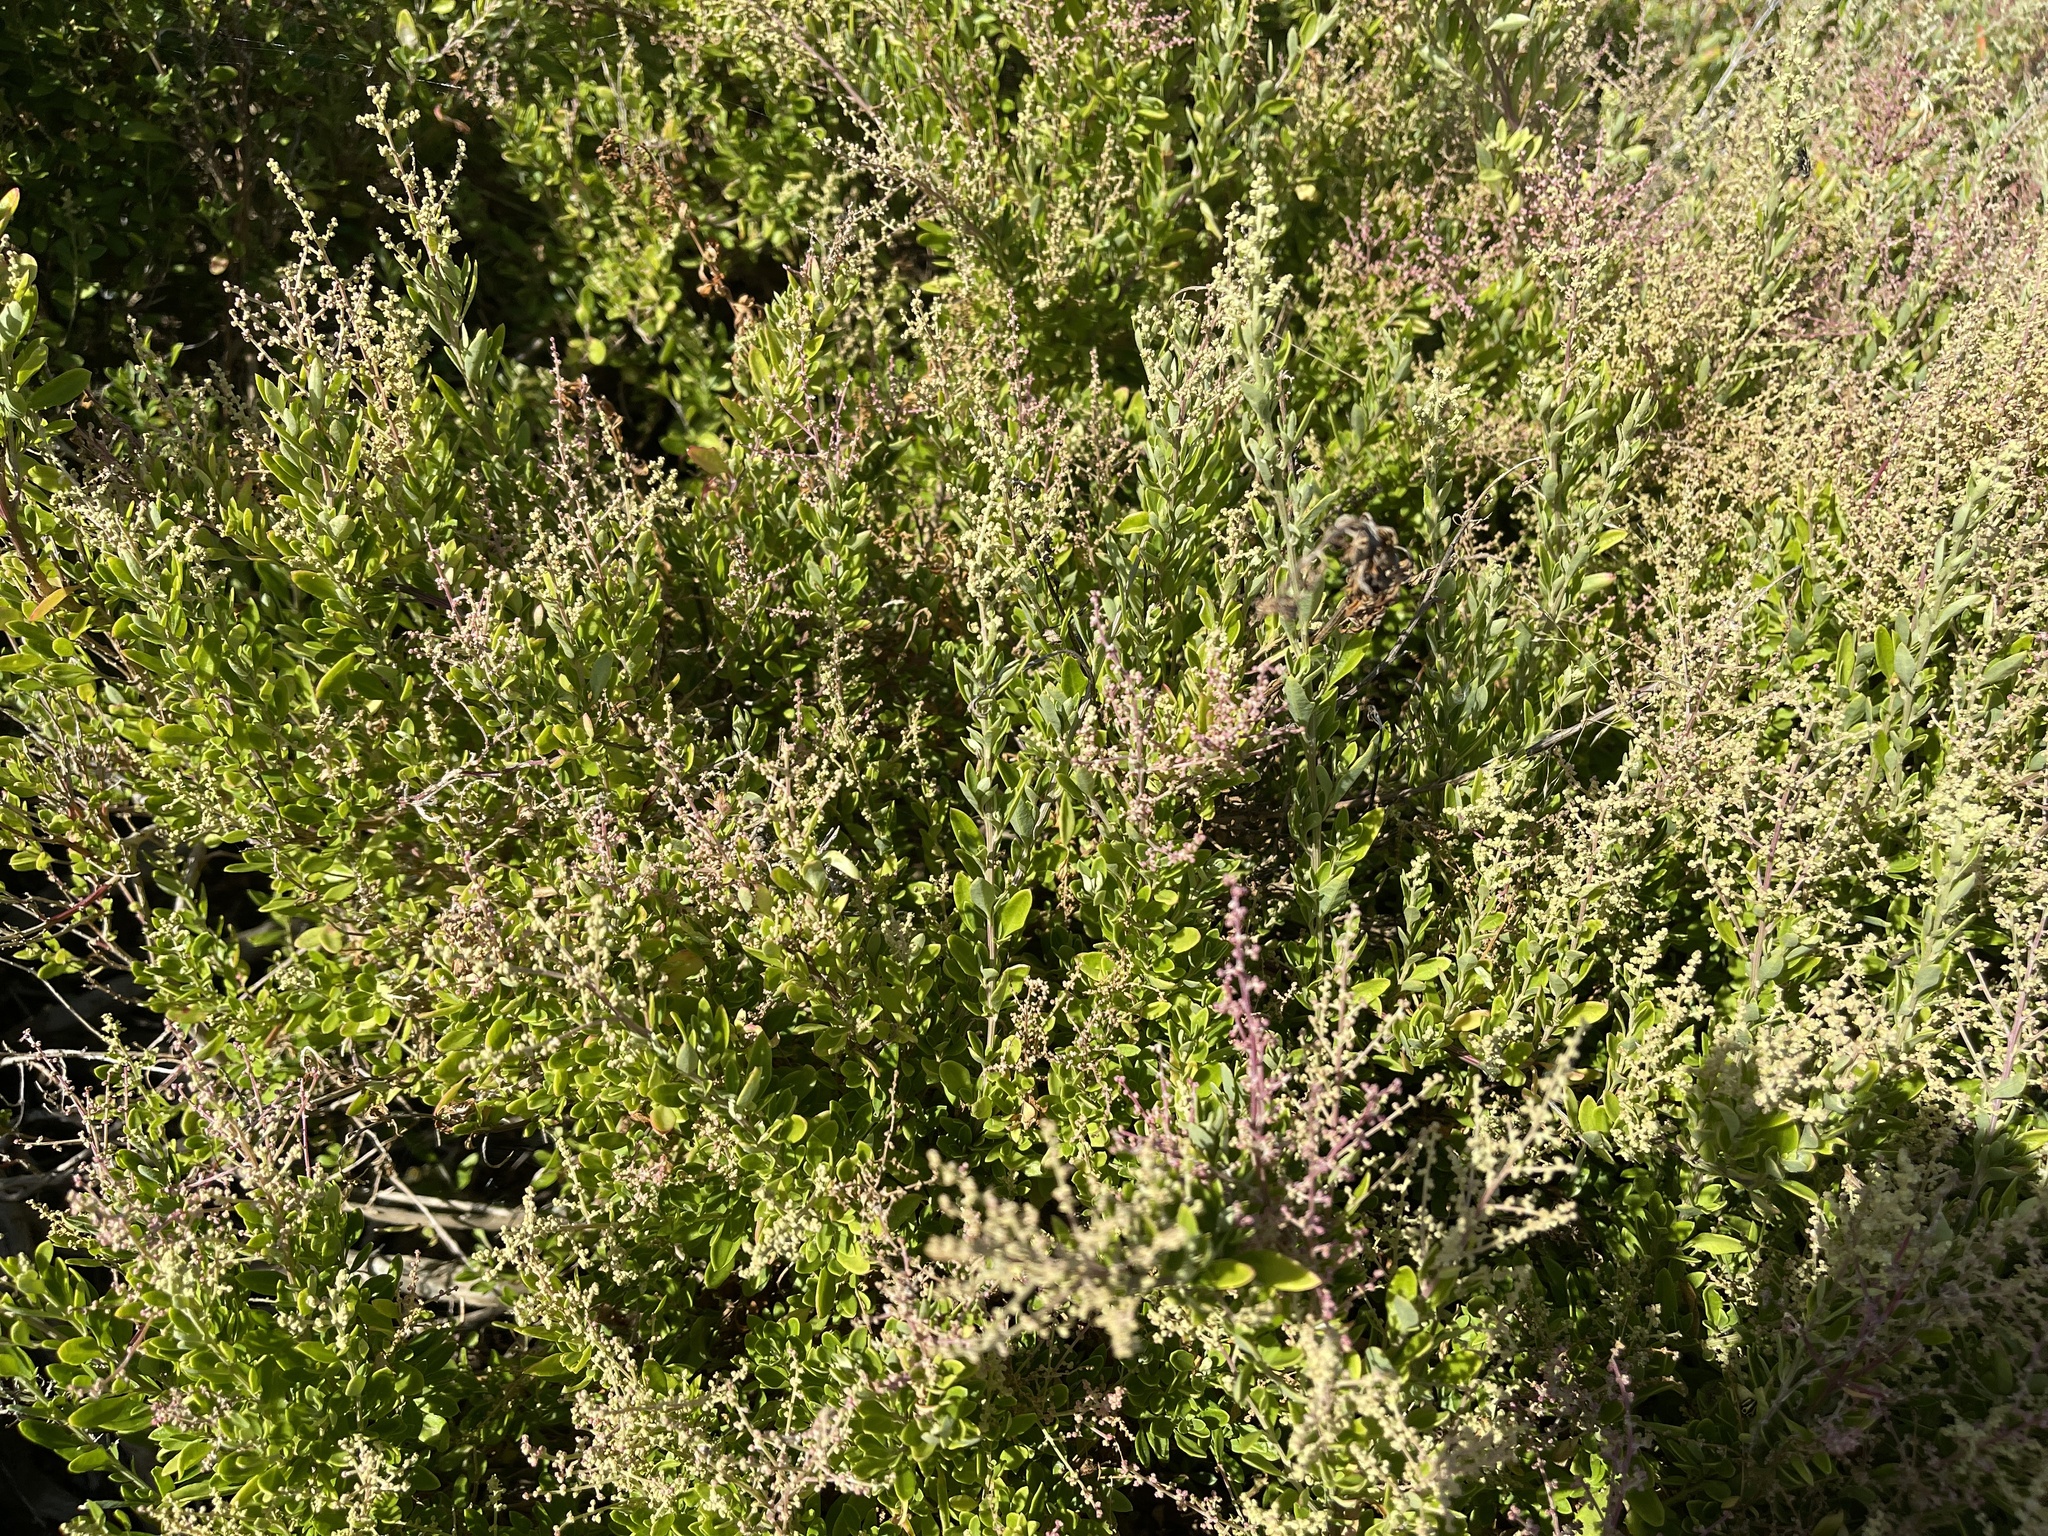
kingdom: Plantae
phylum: Tracheophyta
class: Magnoliopsida
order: Caryophyllales
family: Amaranthaceae
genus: Chenopodium
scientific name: Chenopodium candolleanum
